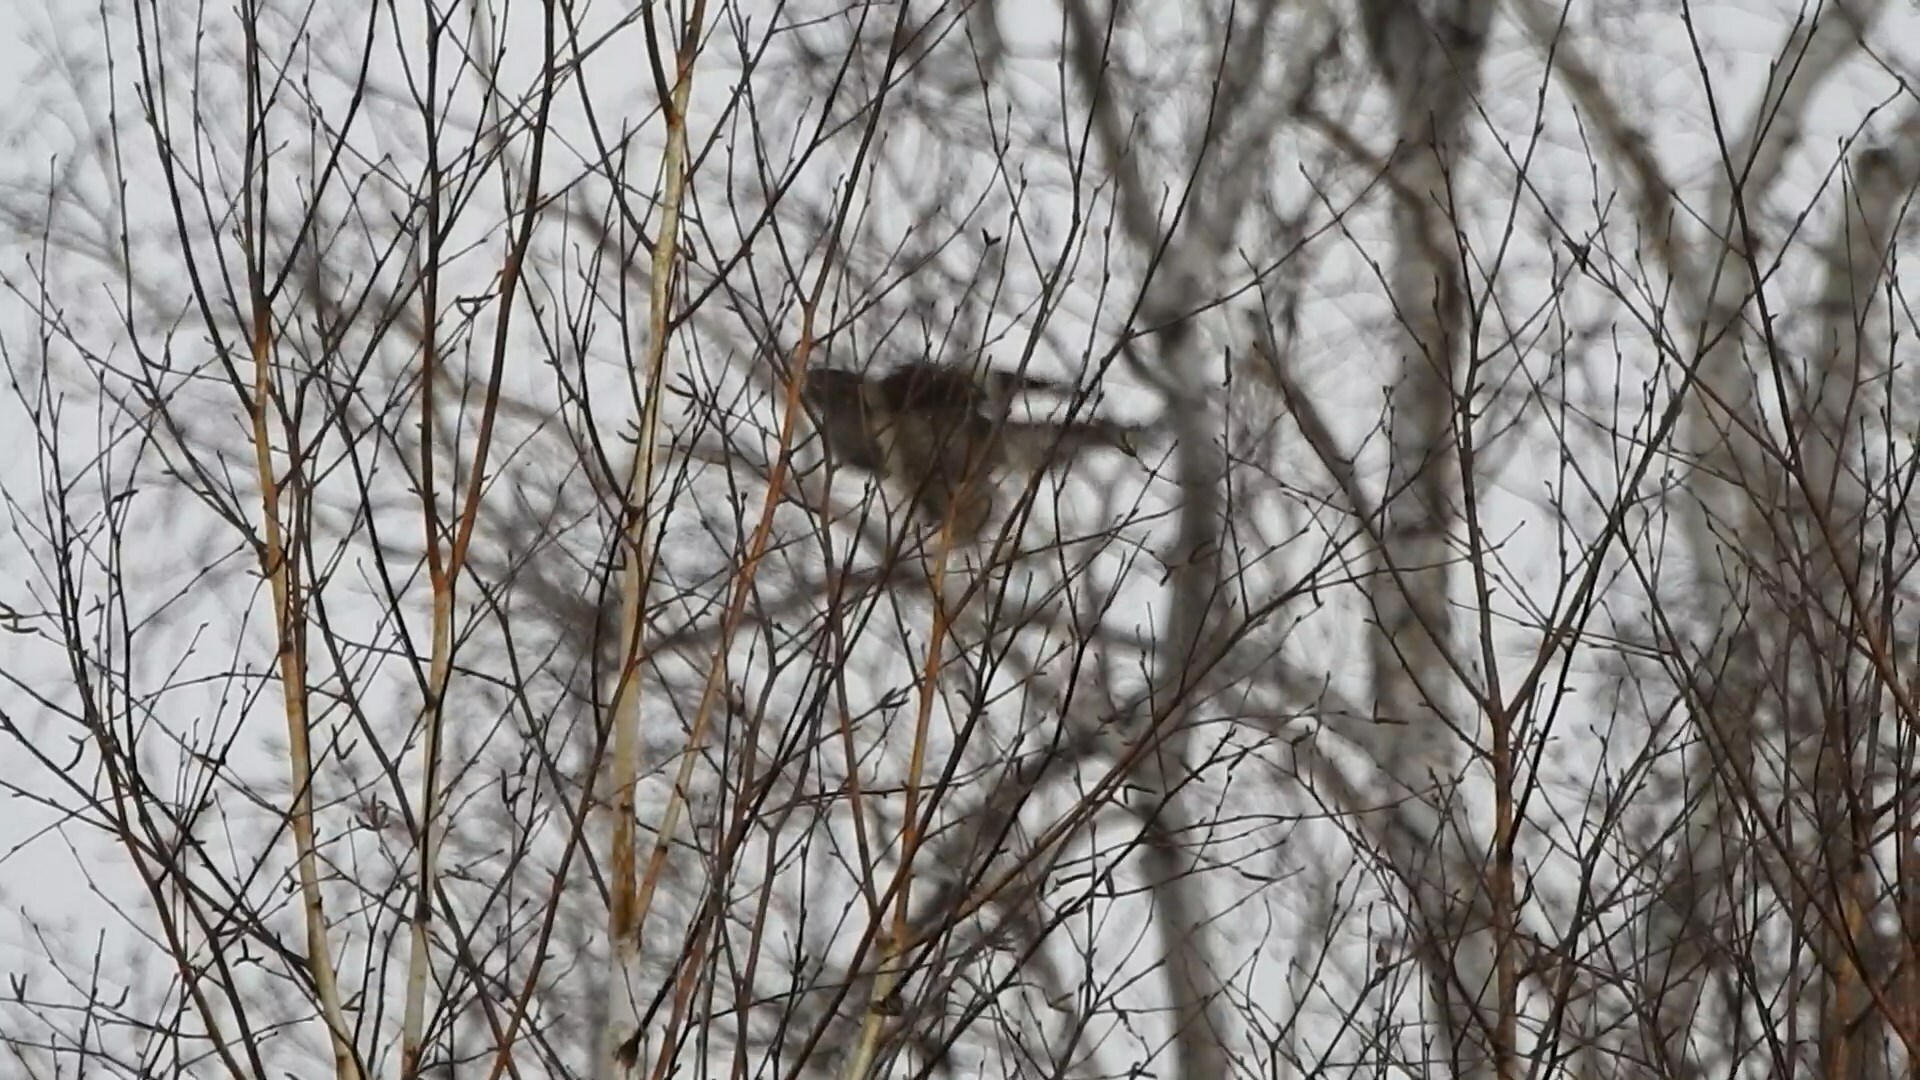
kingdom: Animalia
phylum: Chordata
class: Aves
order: Accipitriformes
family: Accipitridae
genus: Accipiter
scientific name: Accipiter gentilis
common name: Northern goshawk
